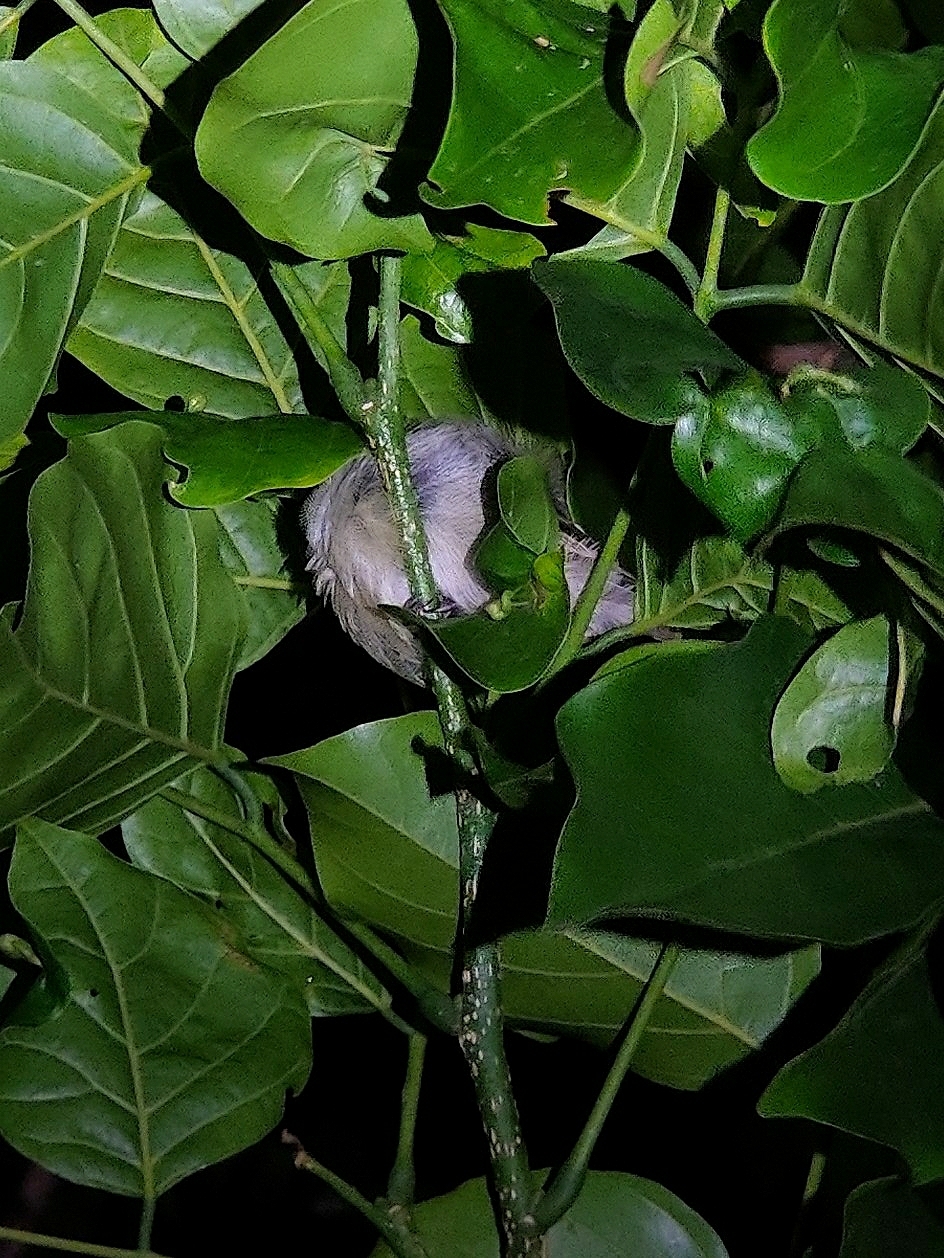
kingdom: Animalia
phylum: Chordata
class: Aves
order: Passeriformes
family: Dicaeidae
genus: Dicaeum
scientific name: Dicaeum erythrorhynchos
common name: Pale-billed flowerpecker
